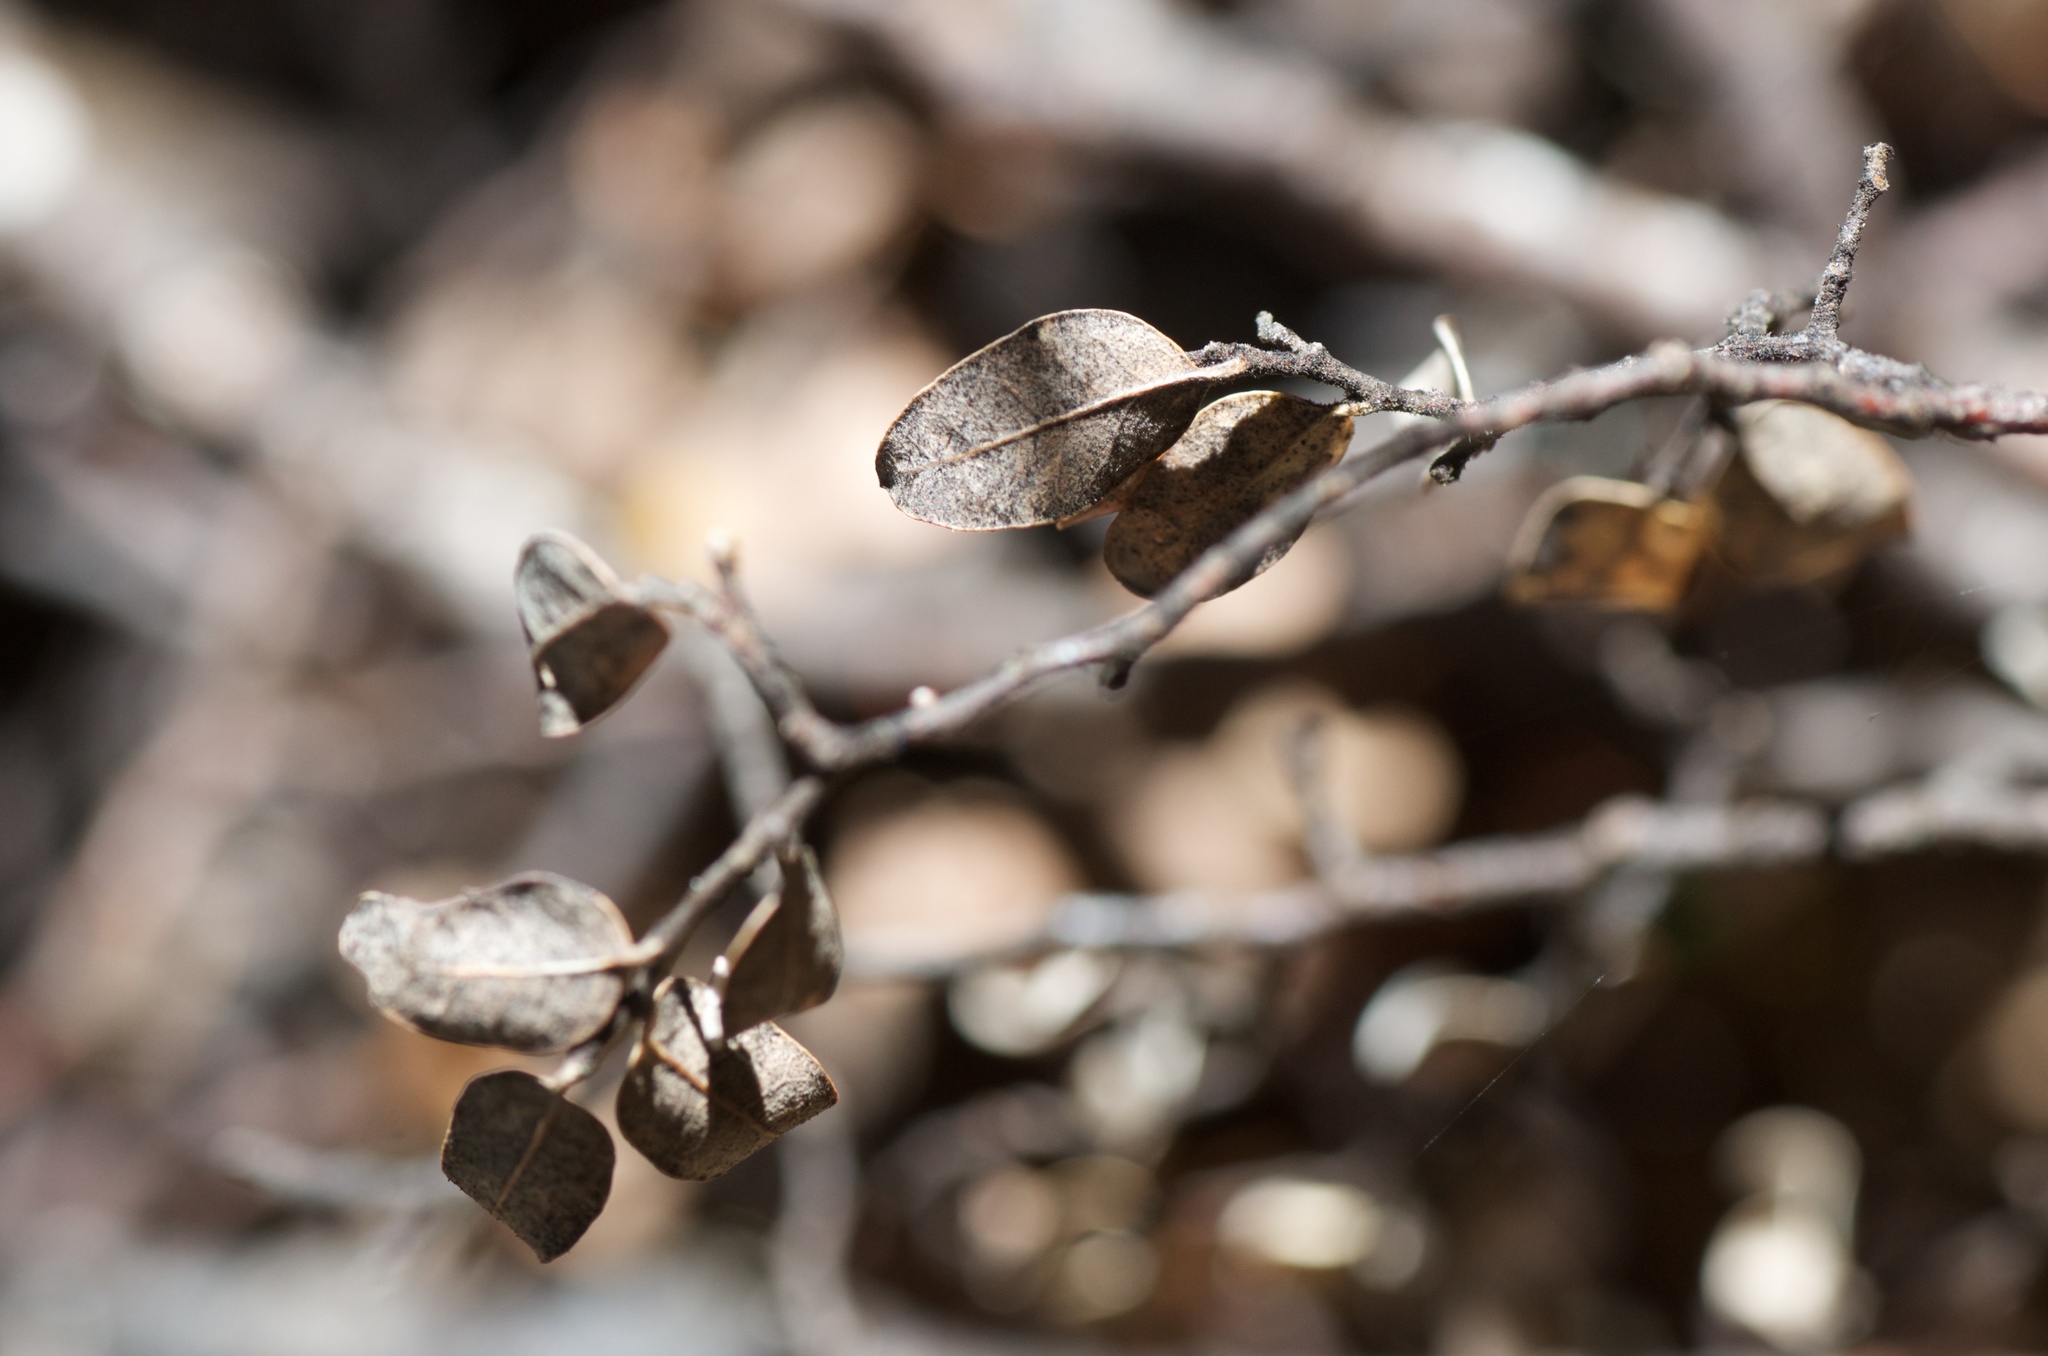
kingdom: Plantae
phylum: Tracheophyta
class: Magnoliopsida
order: Fagales
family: Nothofagaceae
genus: Nothofagus
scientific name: Nothofagus cliffortioides
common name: Mountain beech
